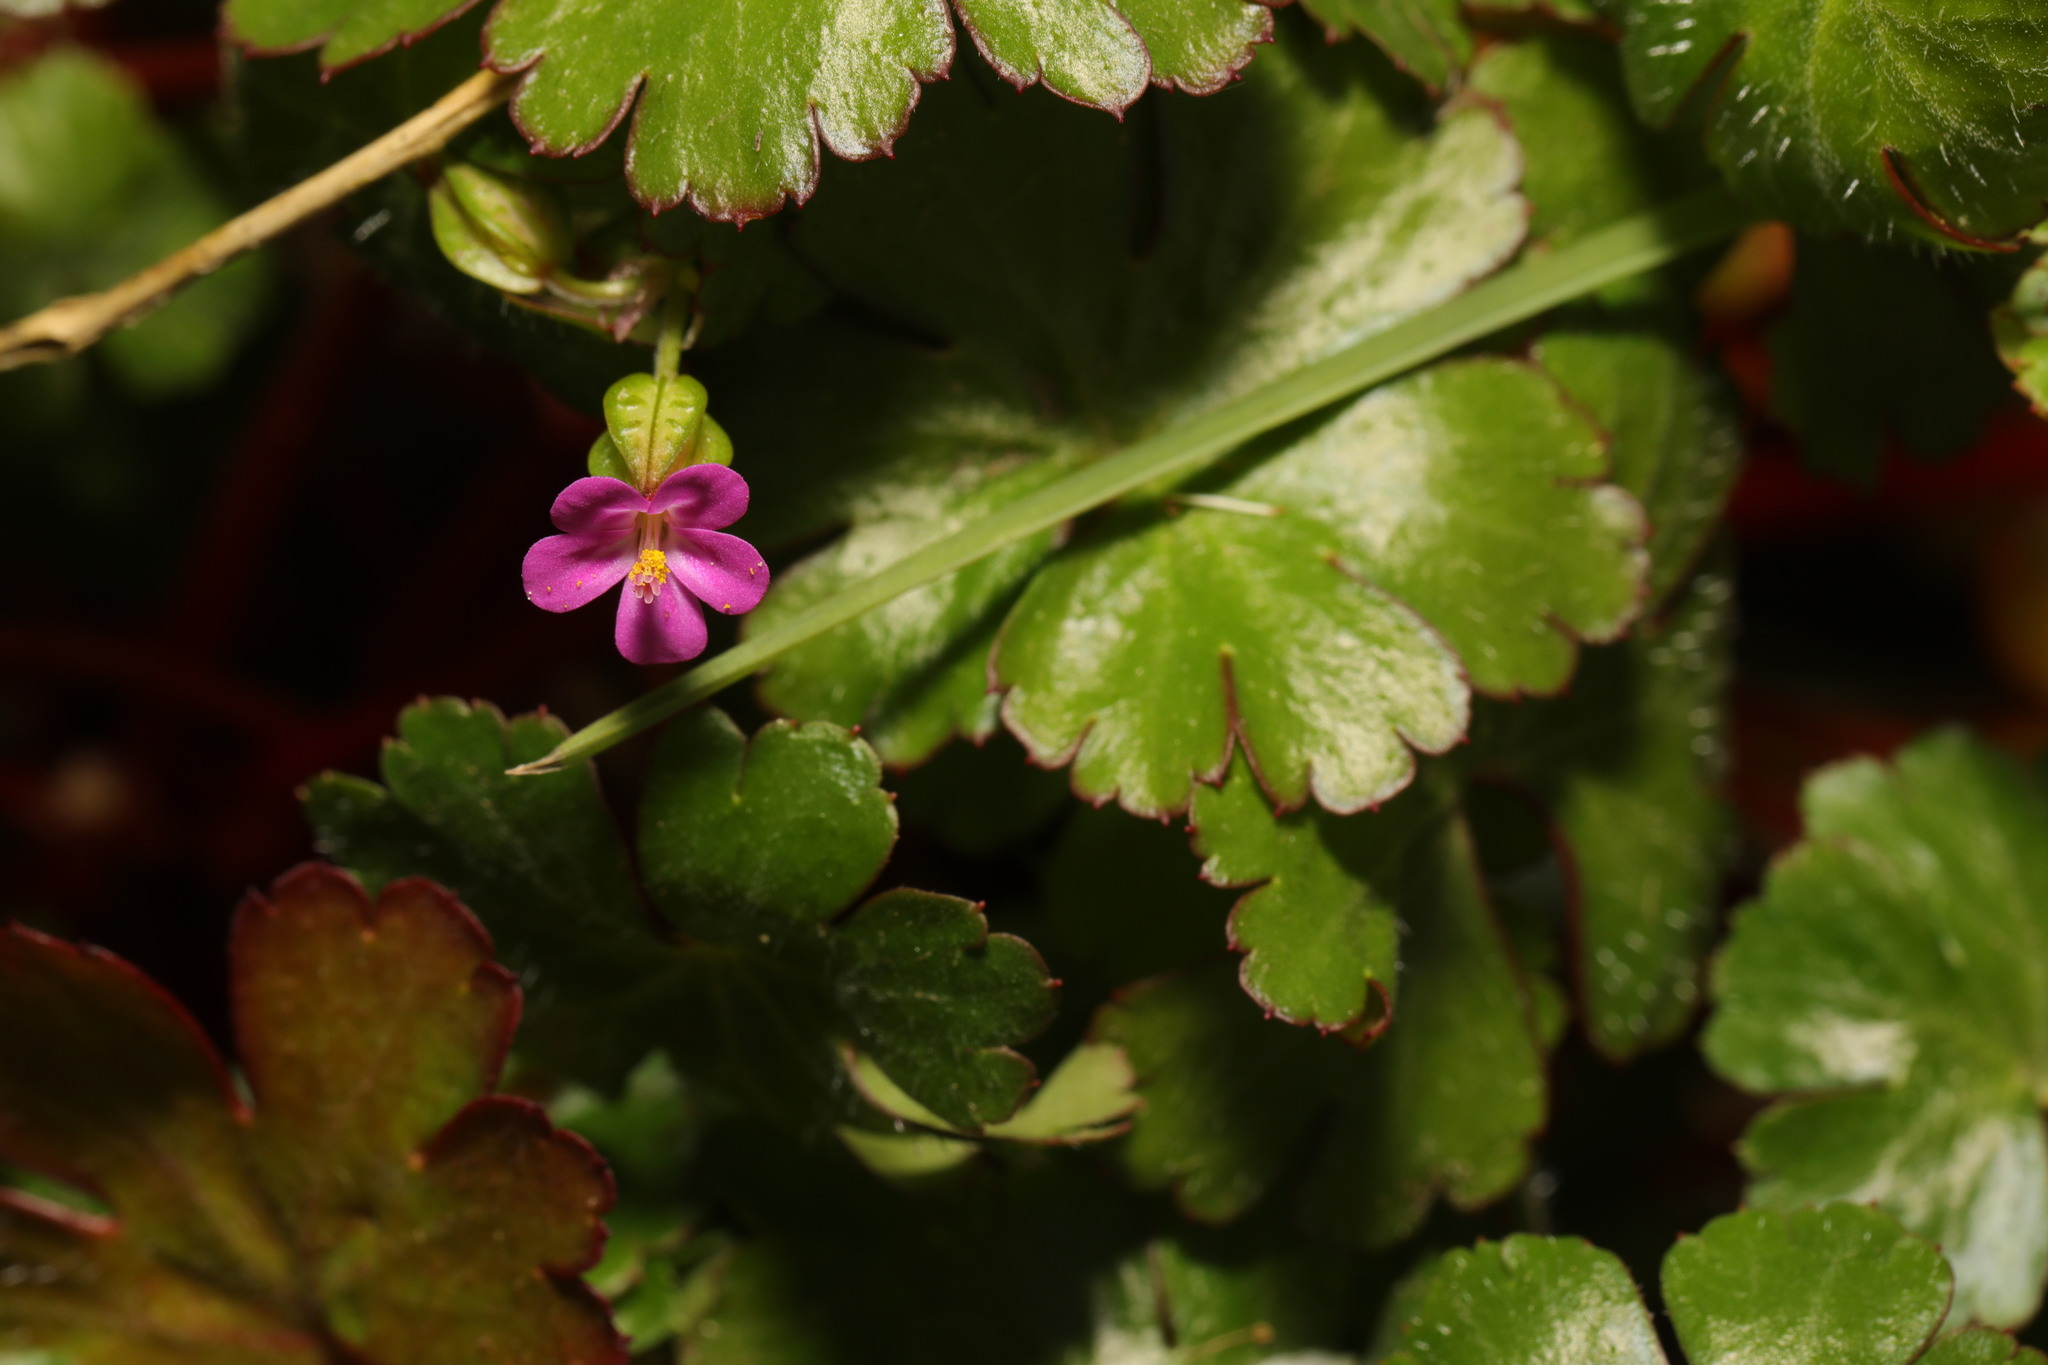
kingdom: Plantae
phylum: Tracheophyta
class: Magnoliopsida
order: Geraniales
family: Geraniaceae
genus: Geranium
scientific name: Geranium lucidum
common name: Shining crane's-bill
